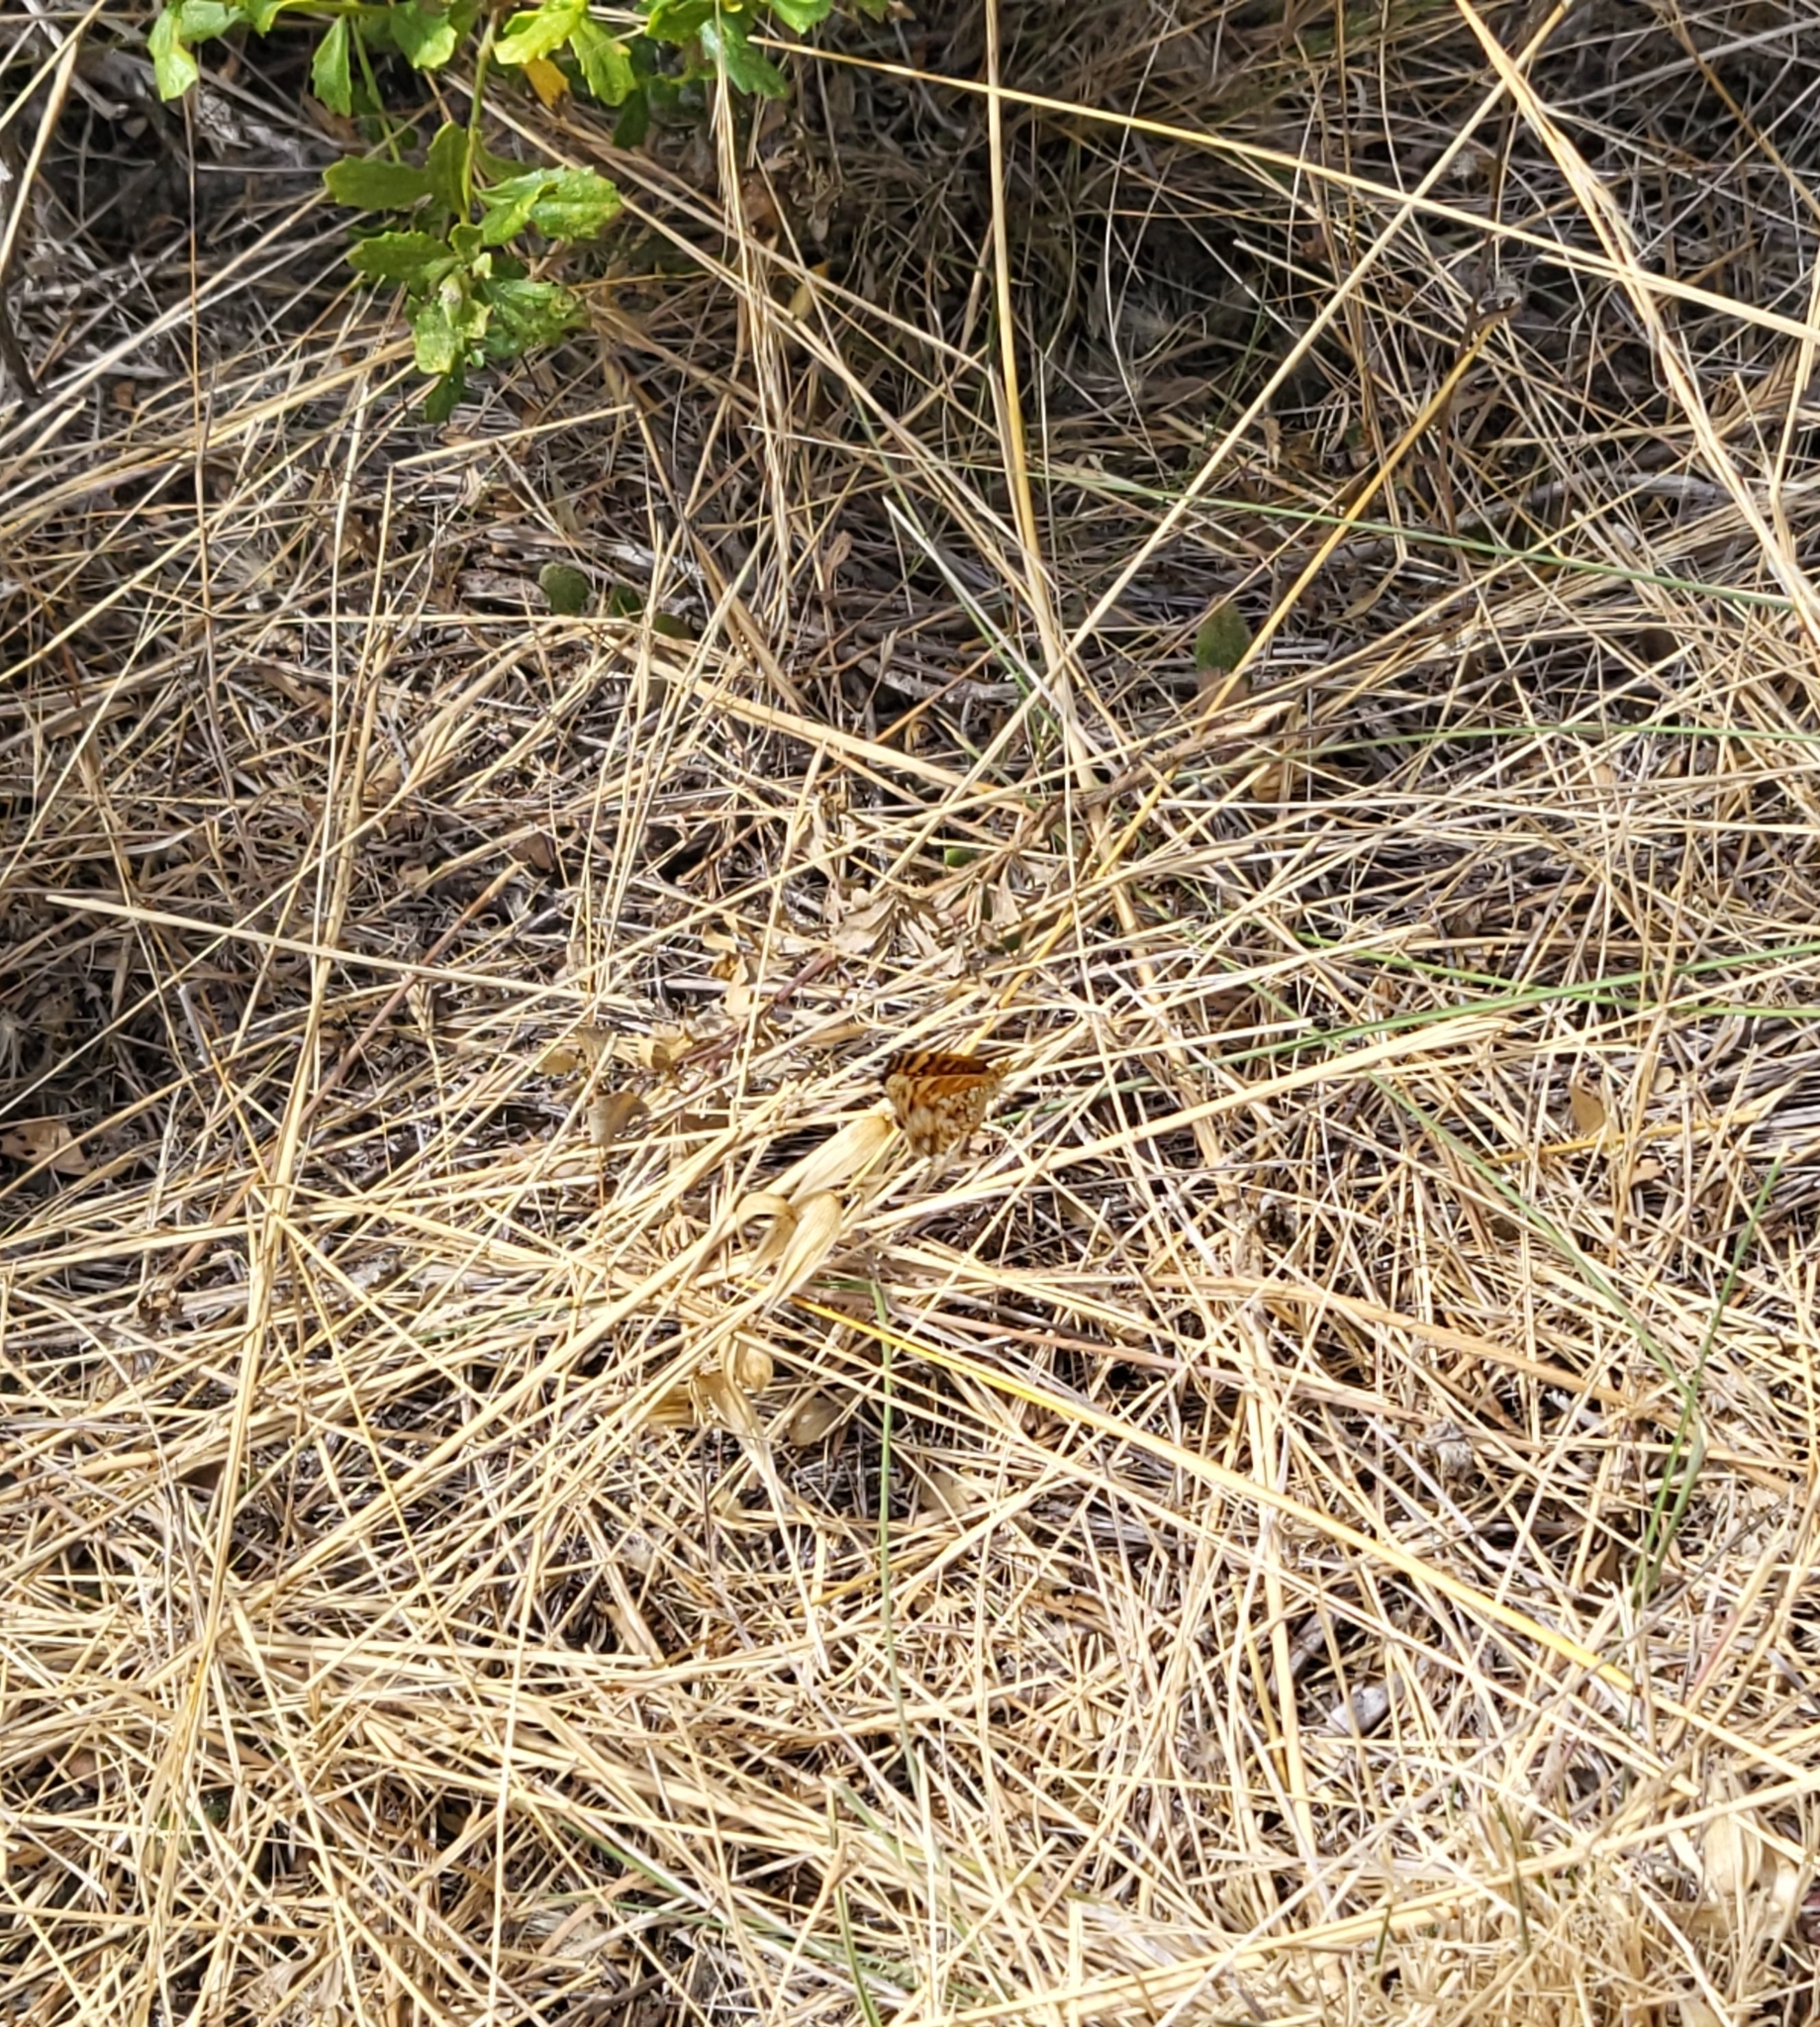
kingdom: Animalia
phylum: Arthropoda
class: Insecta
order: Lepidoptera
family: Nymphalidae
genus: Eresia
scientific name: Eresia aveyrona
